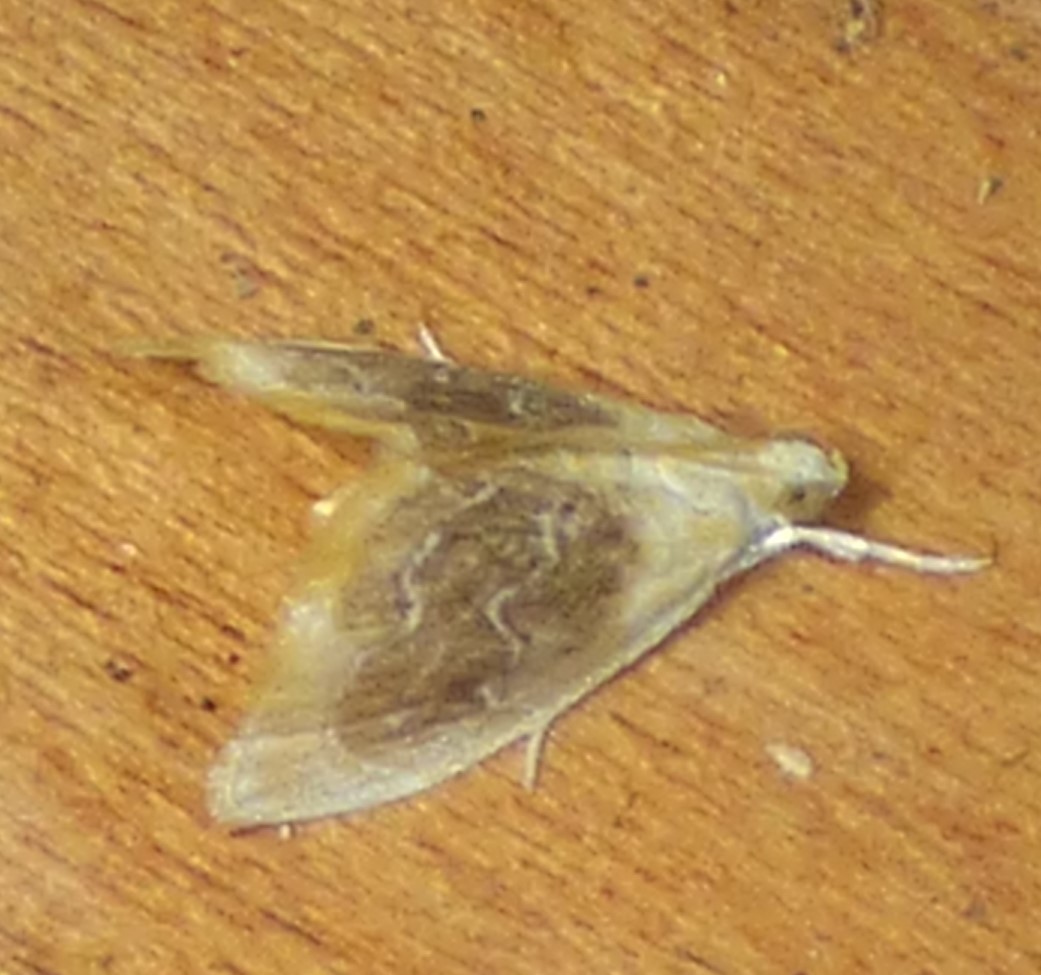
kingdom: Animalia
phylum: Arthropoda
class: Insecta
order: Lepidoptera
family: Crambidae
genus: Glaphyria
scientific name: Glaphyria fulminalis
